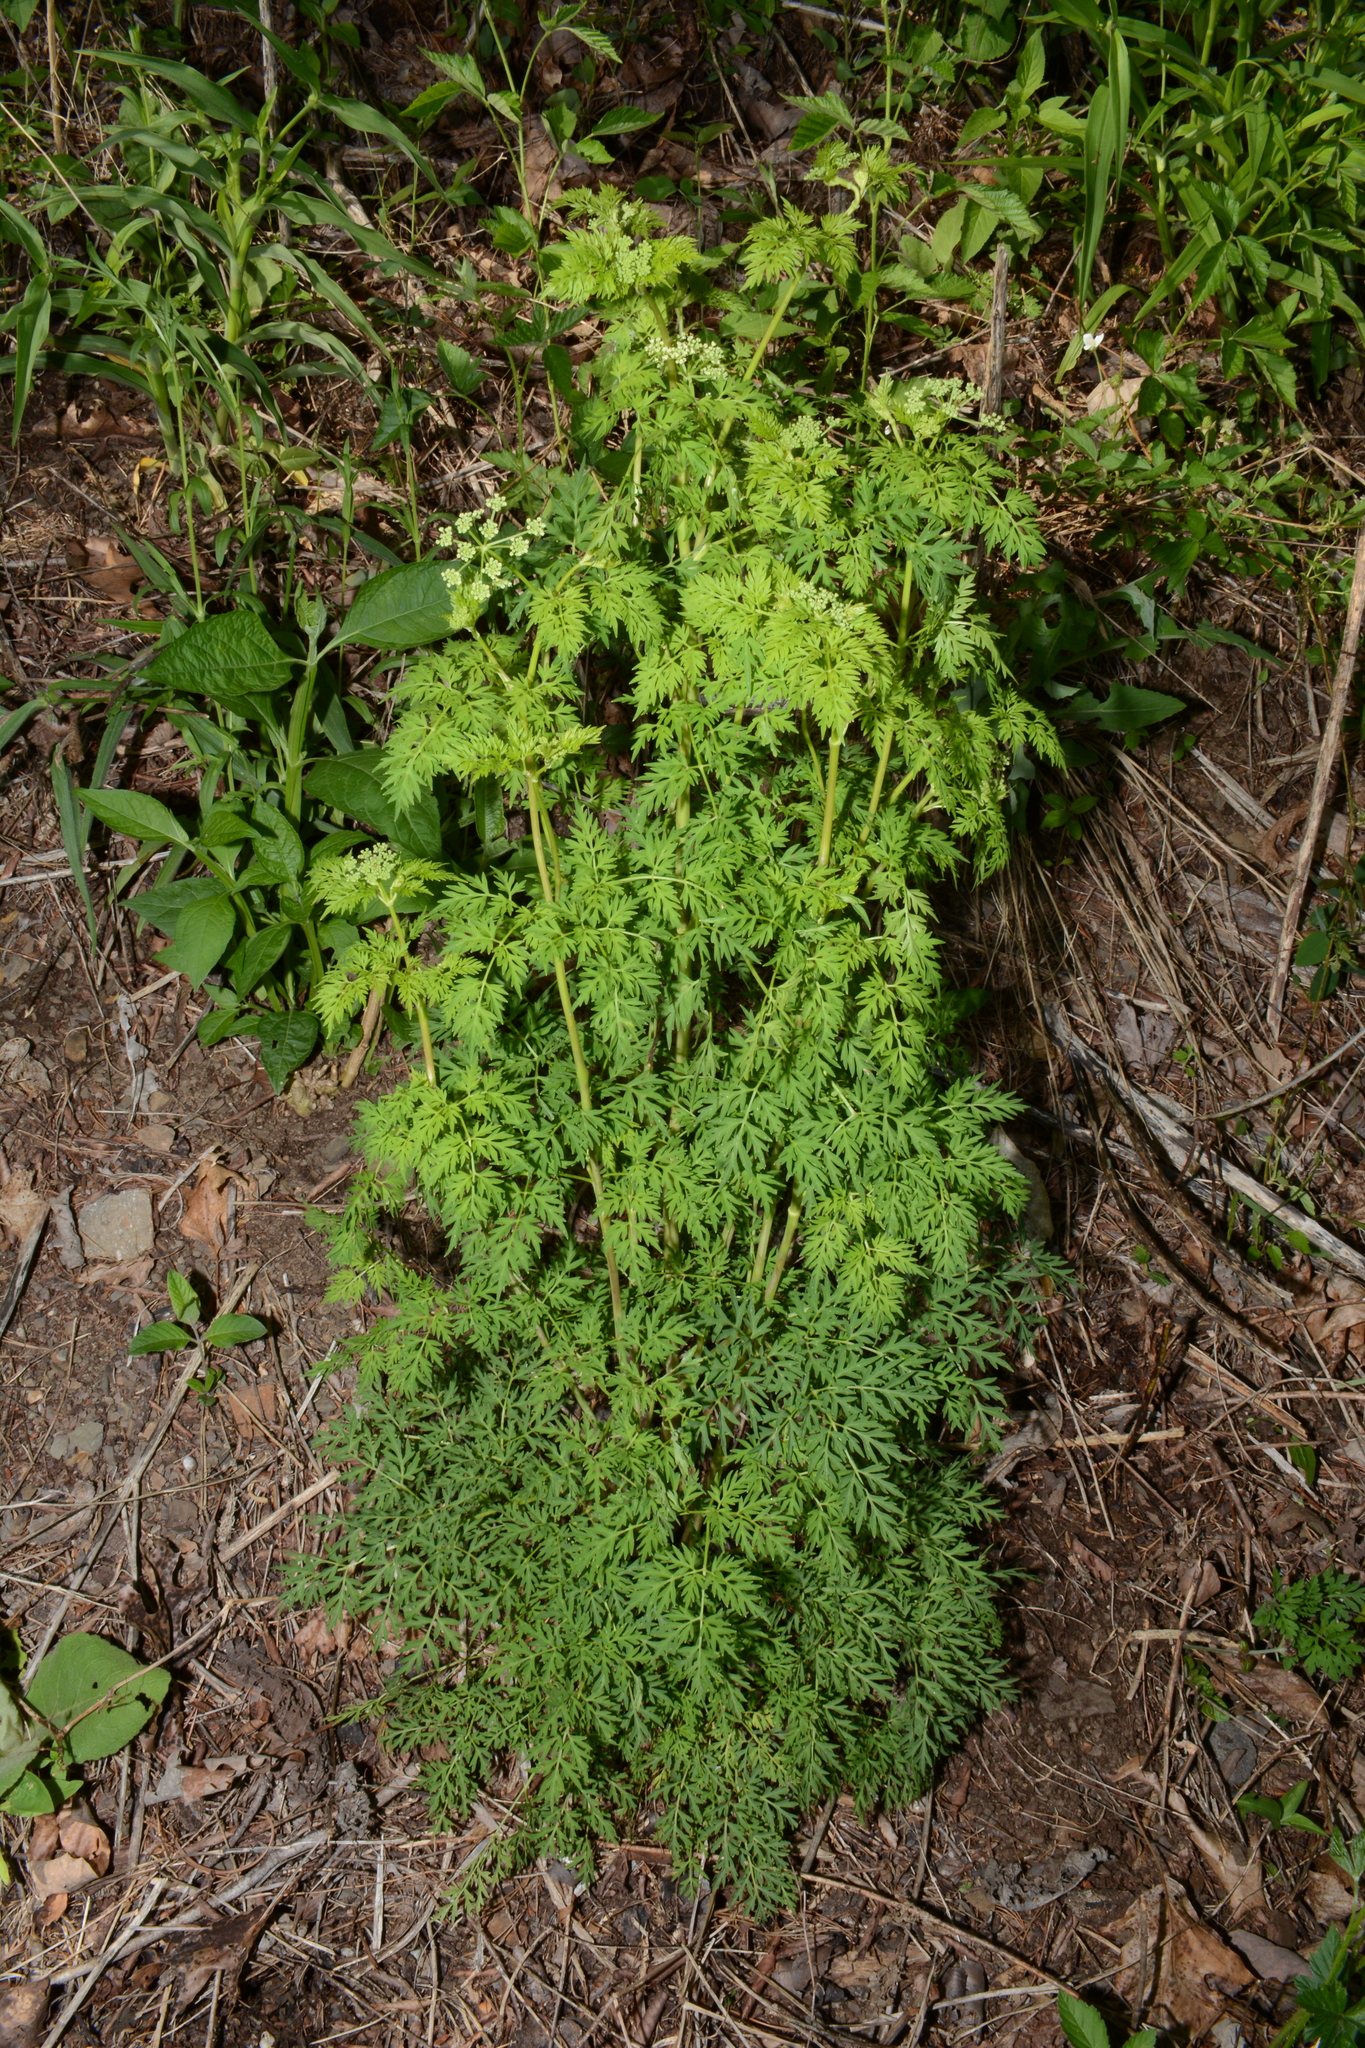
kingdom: Plantae
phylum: Tracheophyta
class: Magnoliopsida
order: Apiales
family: Apiaceae
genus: Thaspium
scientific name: Thaspium pinnatifidum
